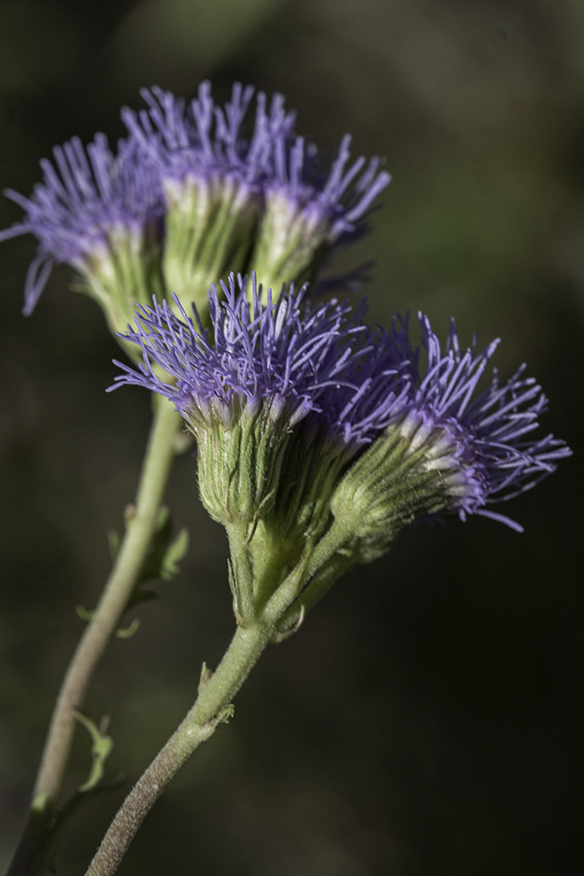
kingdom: Plantae
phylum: Tracheophyta
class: Magnoliopsida
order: Asterales
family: Asteraceae
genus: Conoclinium
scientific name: Conoclinium dissectum
